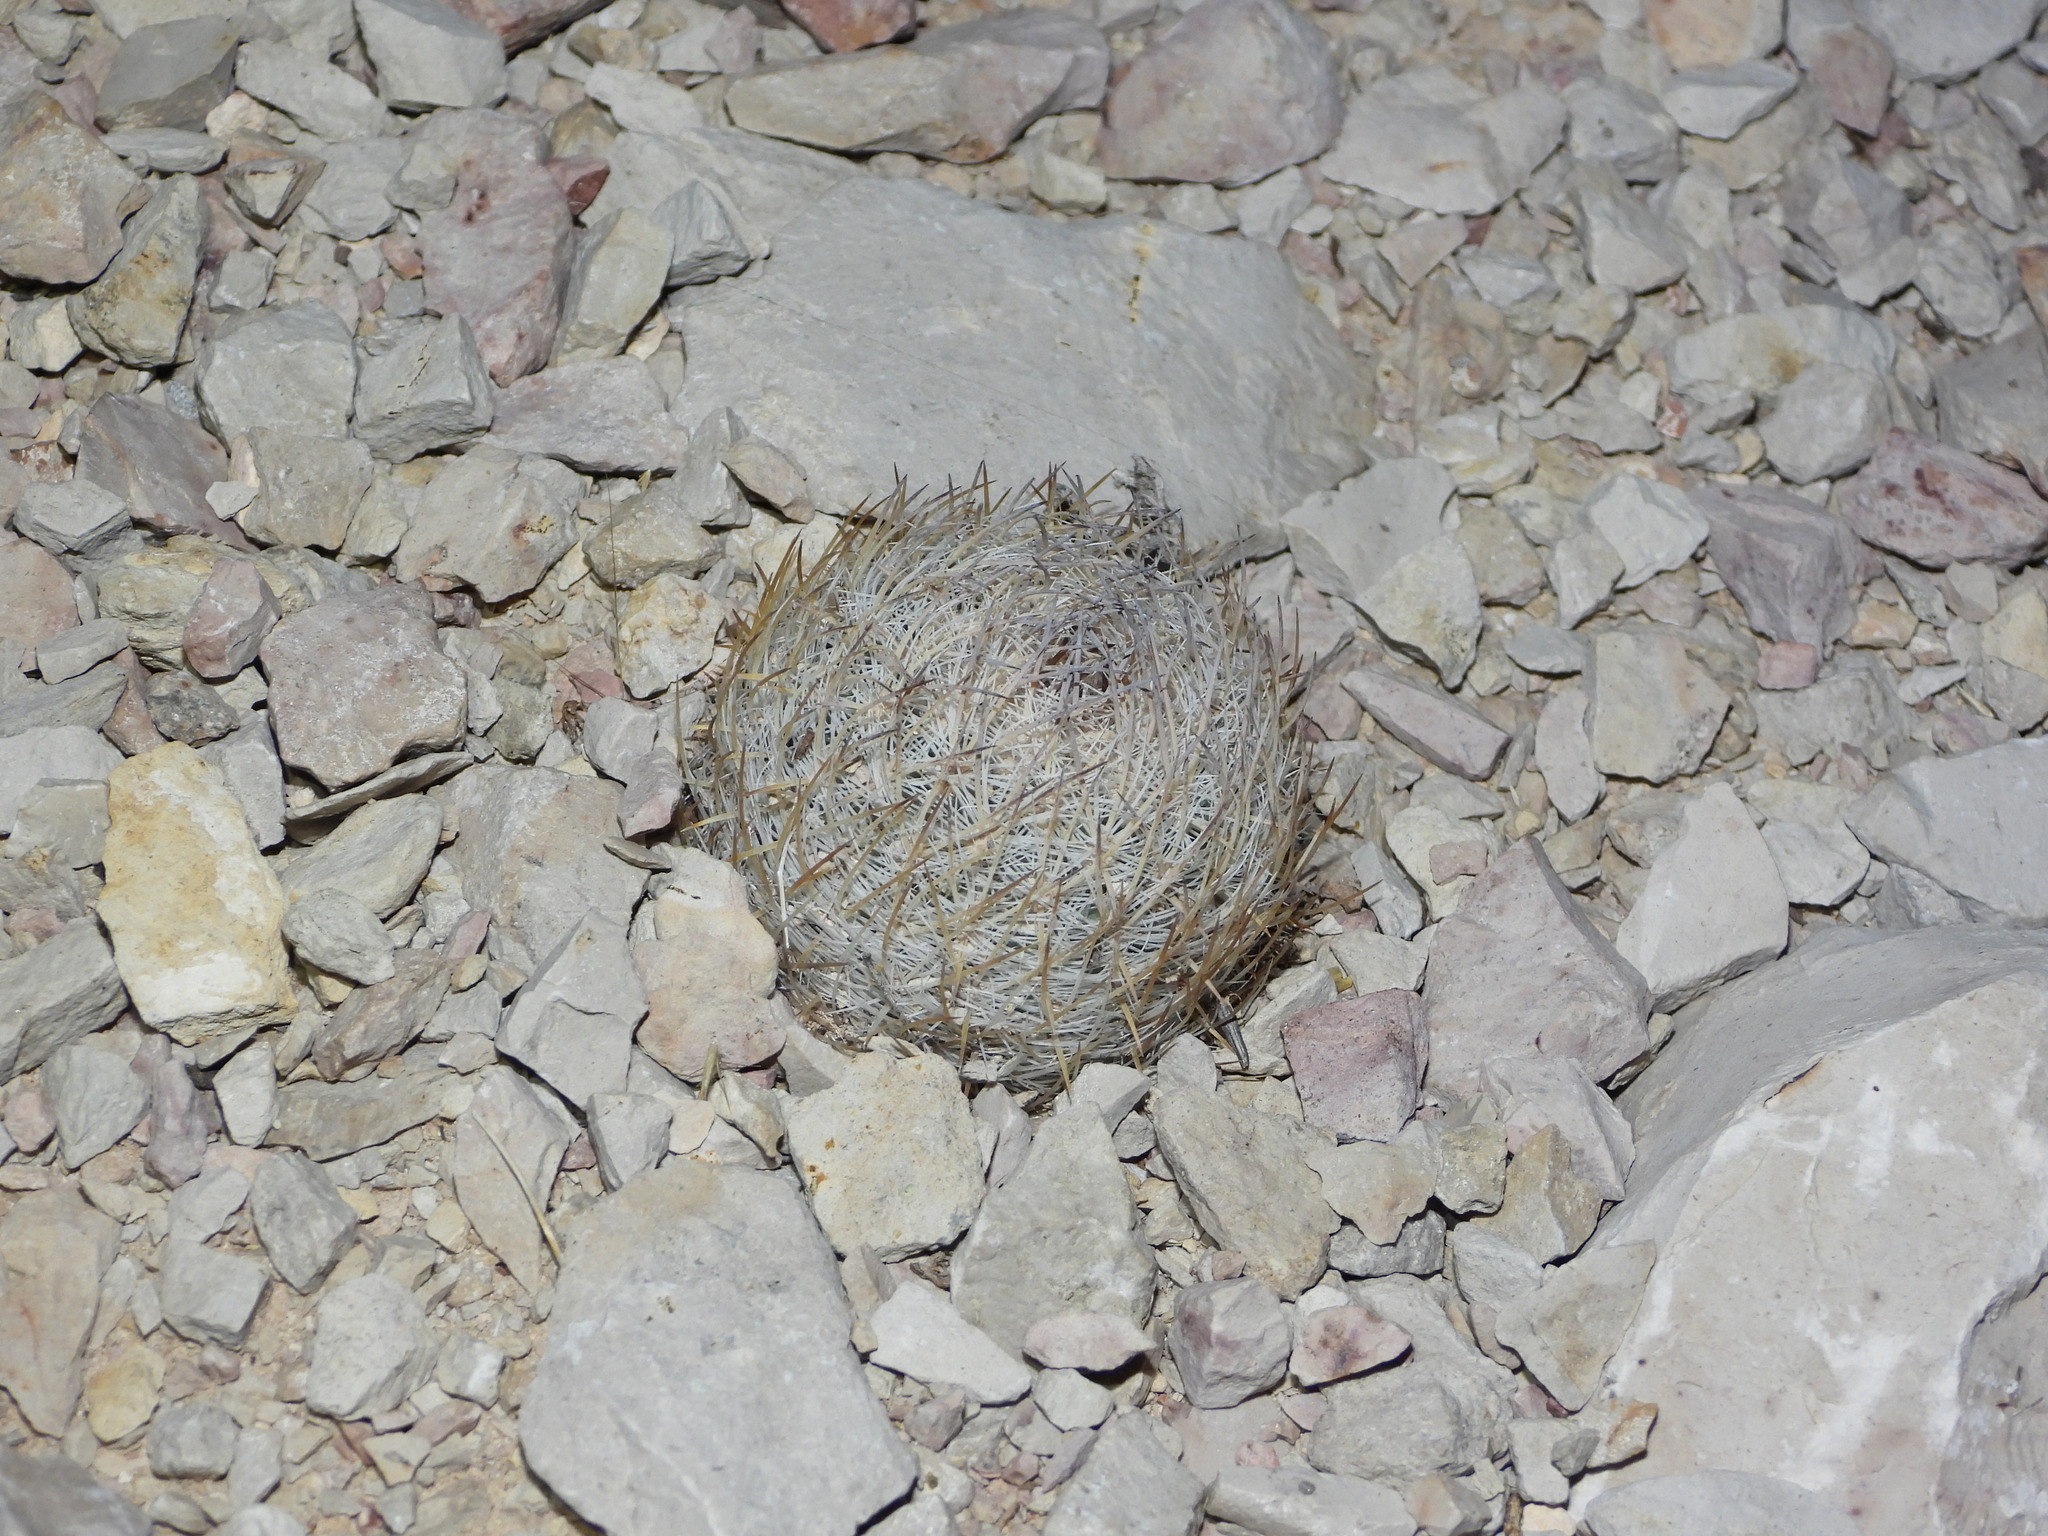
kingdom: Plantae
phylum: Tracheophyta
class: Magnoliopsida
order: Caryophyllales
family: Cactaceae
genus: Sclerocactus
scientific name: Sclerocactus mariposensis
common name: Golfball cactus
